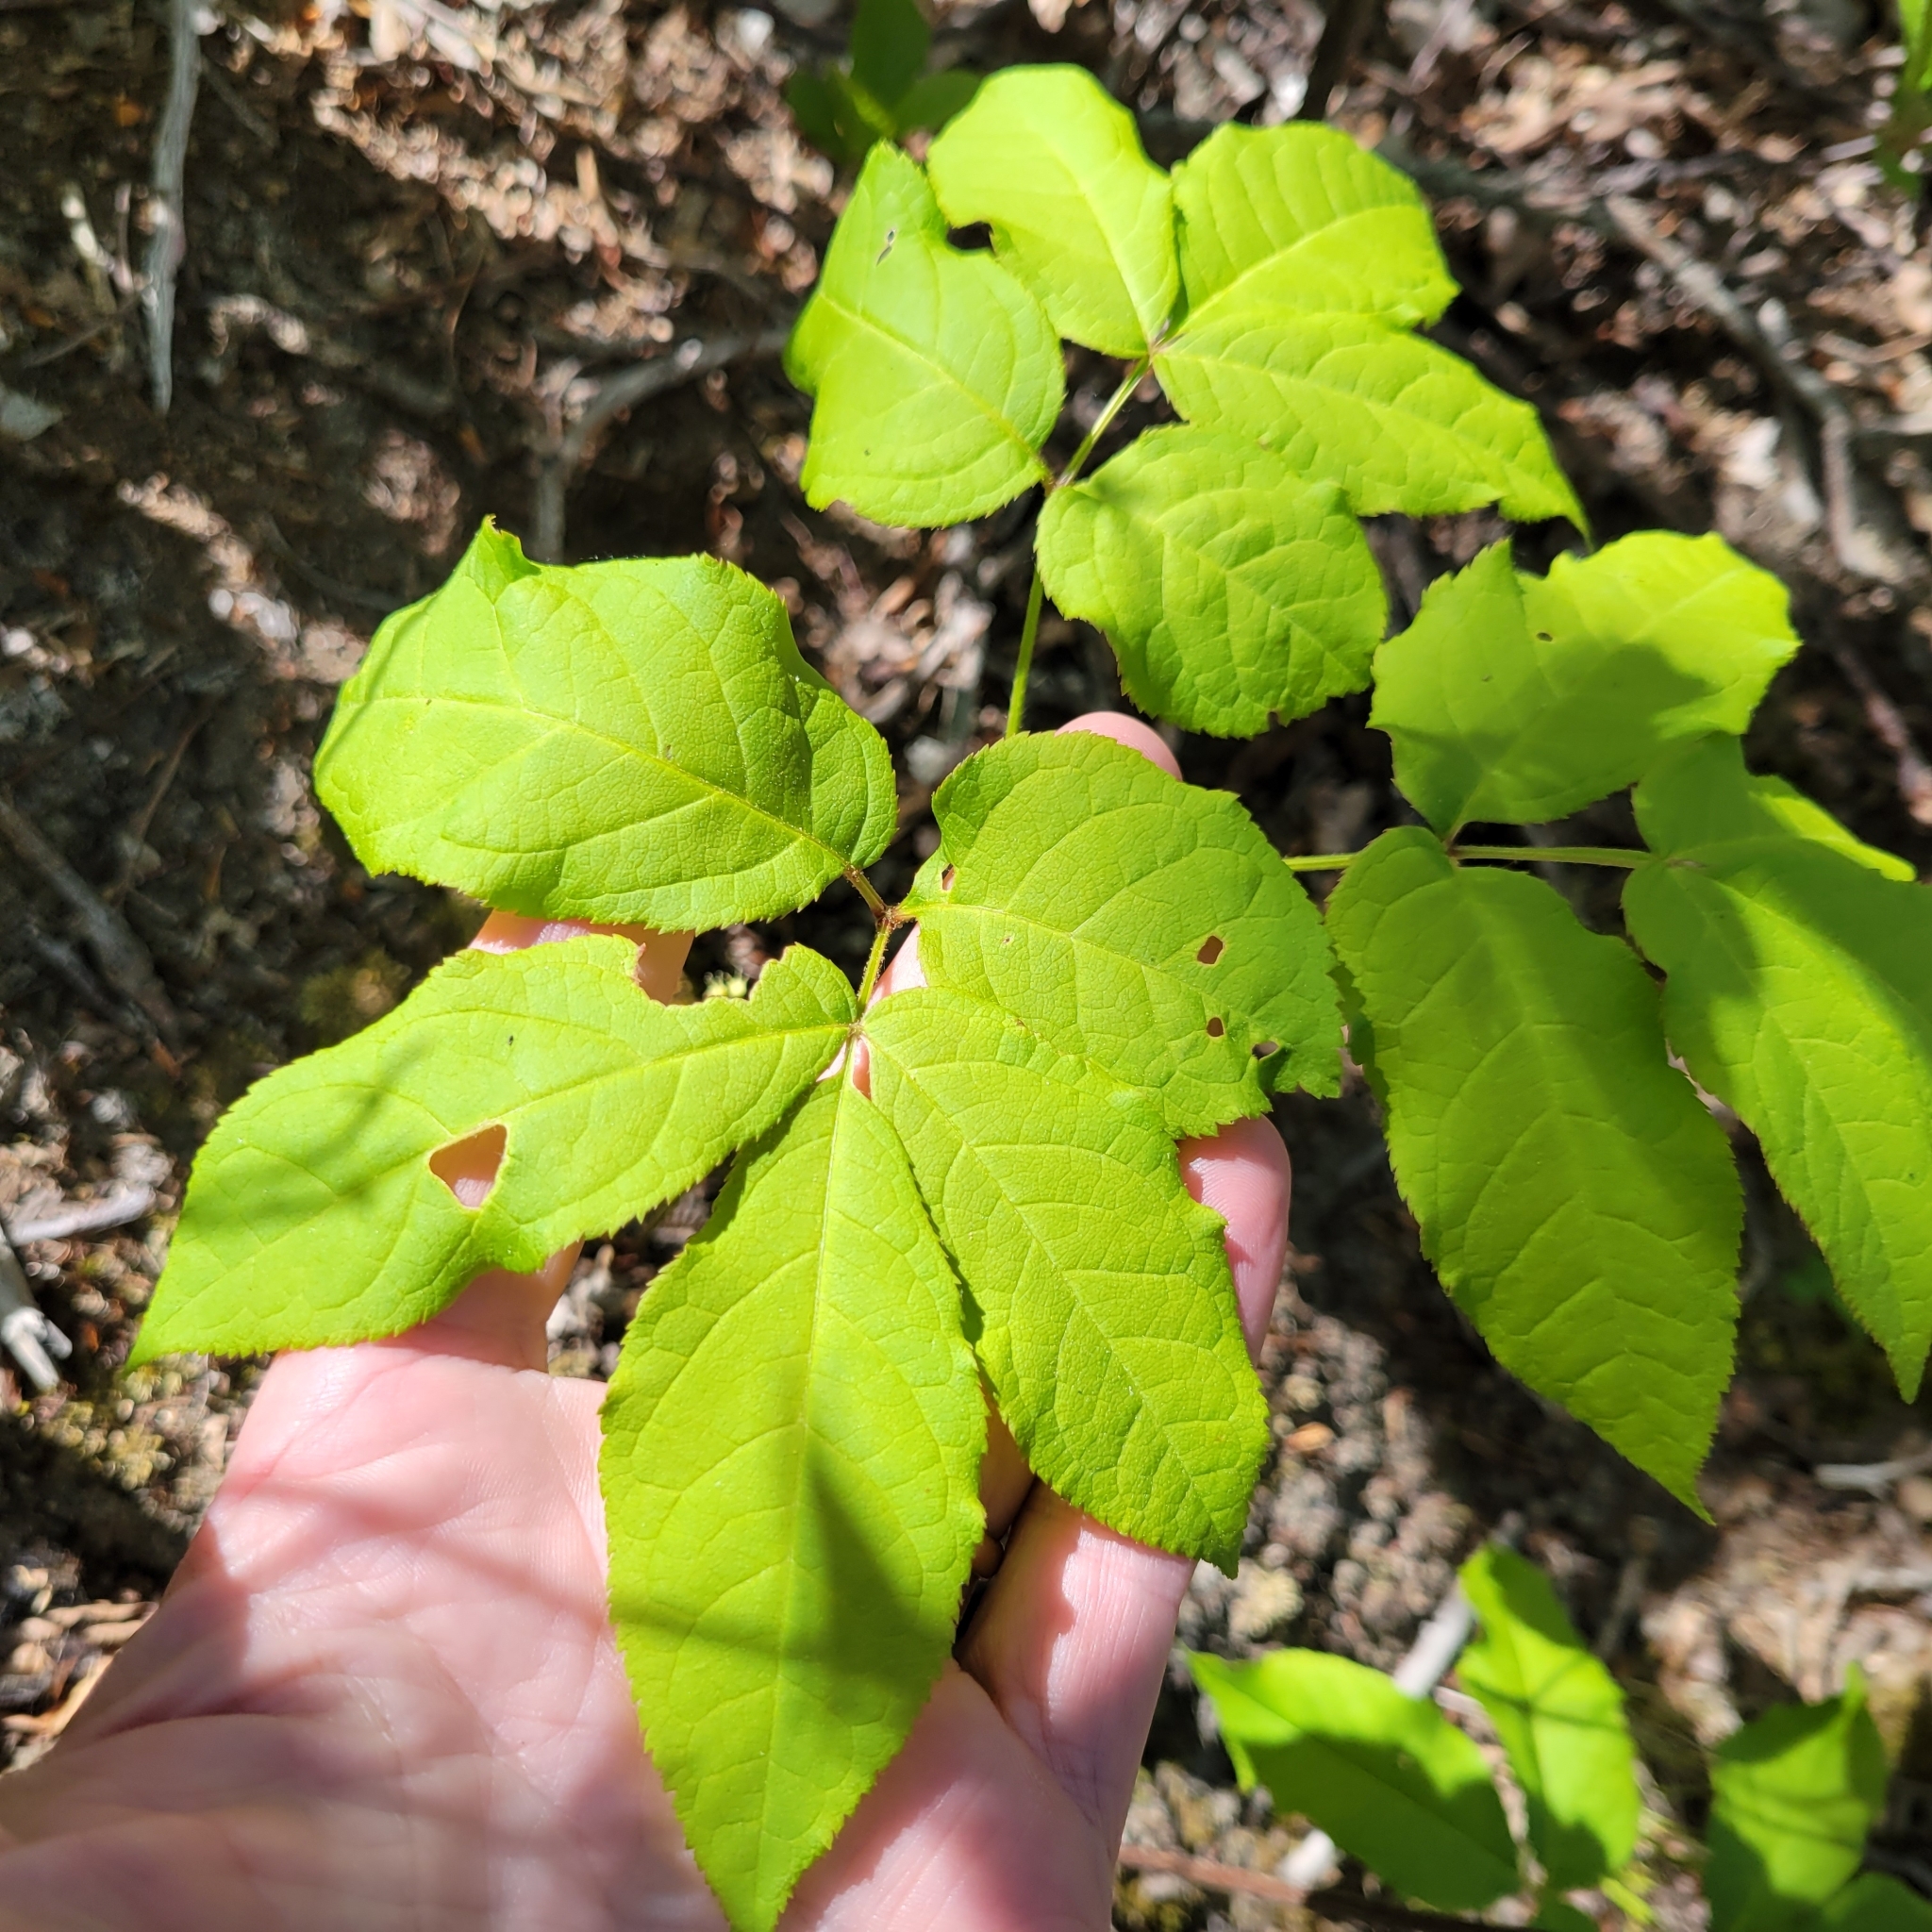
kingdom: Plantae
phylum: Tracheophyta
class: Magnoliopsida
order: Apiales
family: Araliaceae
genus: Aralia
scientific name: Aralia nudicaulis
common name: Wild sarsaparilla
